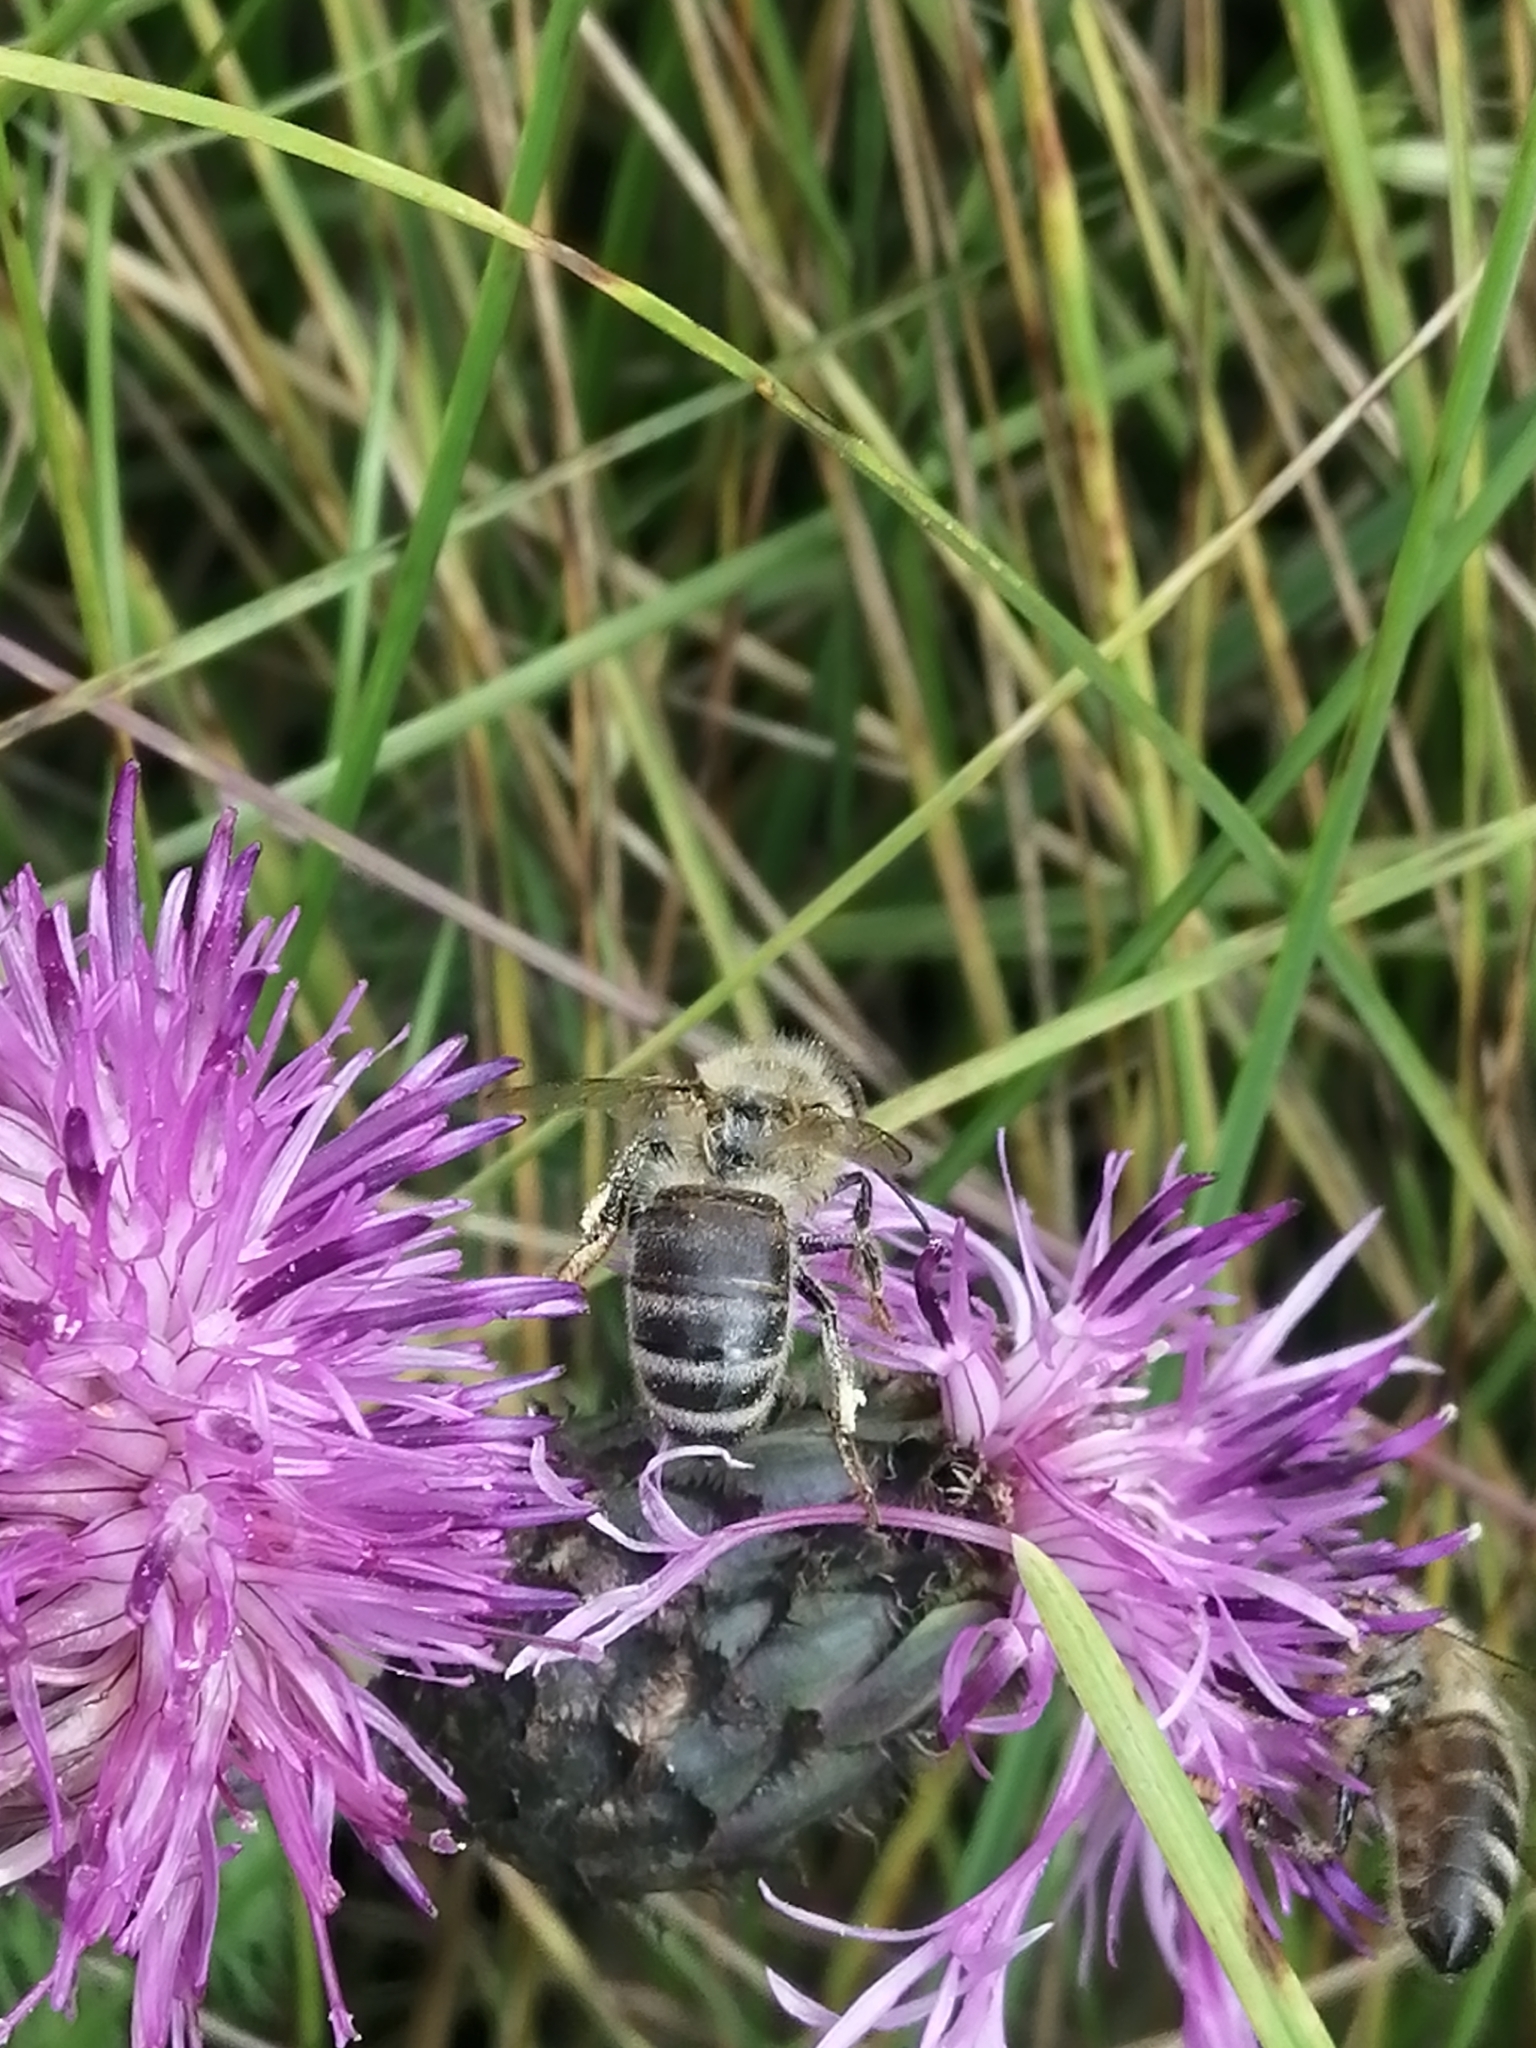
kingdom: Animalia
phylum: Arthropoda
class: Insecta
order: Hymenoptera
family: Apidae
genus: Apis
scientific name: Apis mellifera
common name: Honey bee
